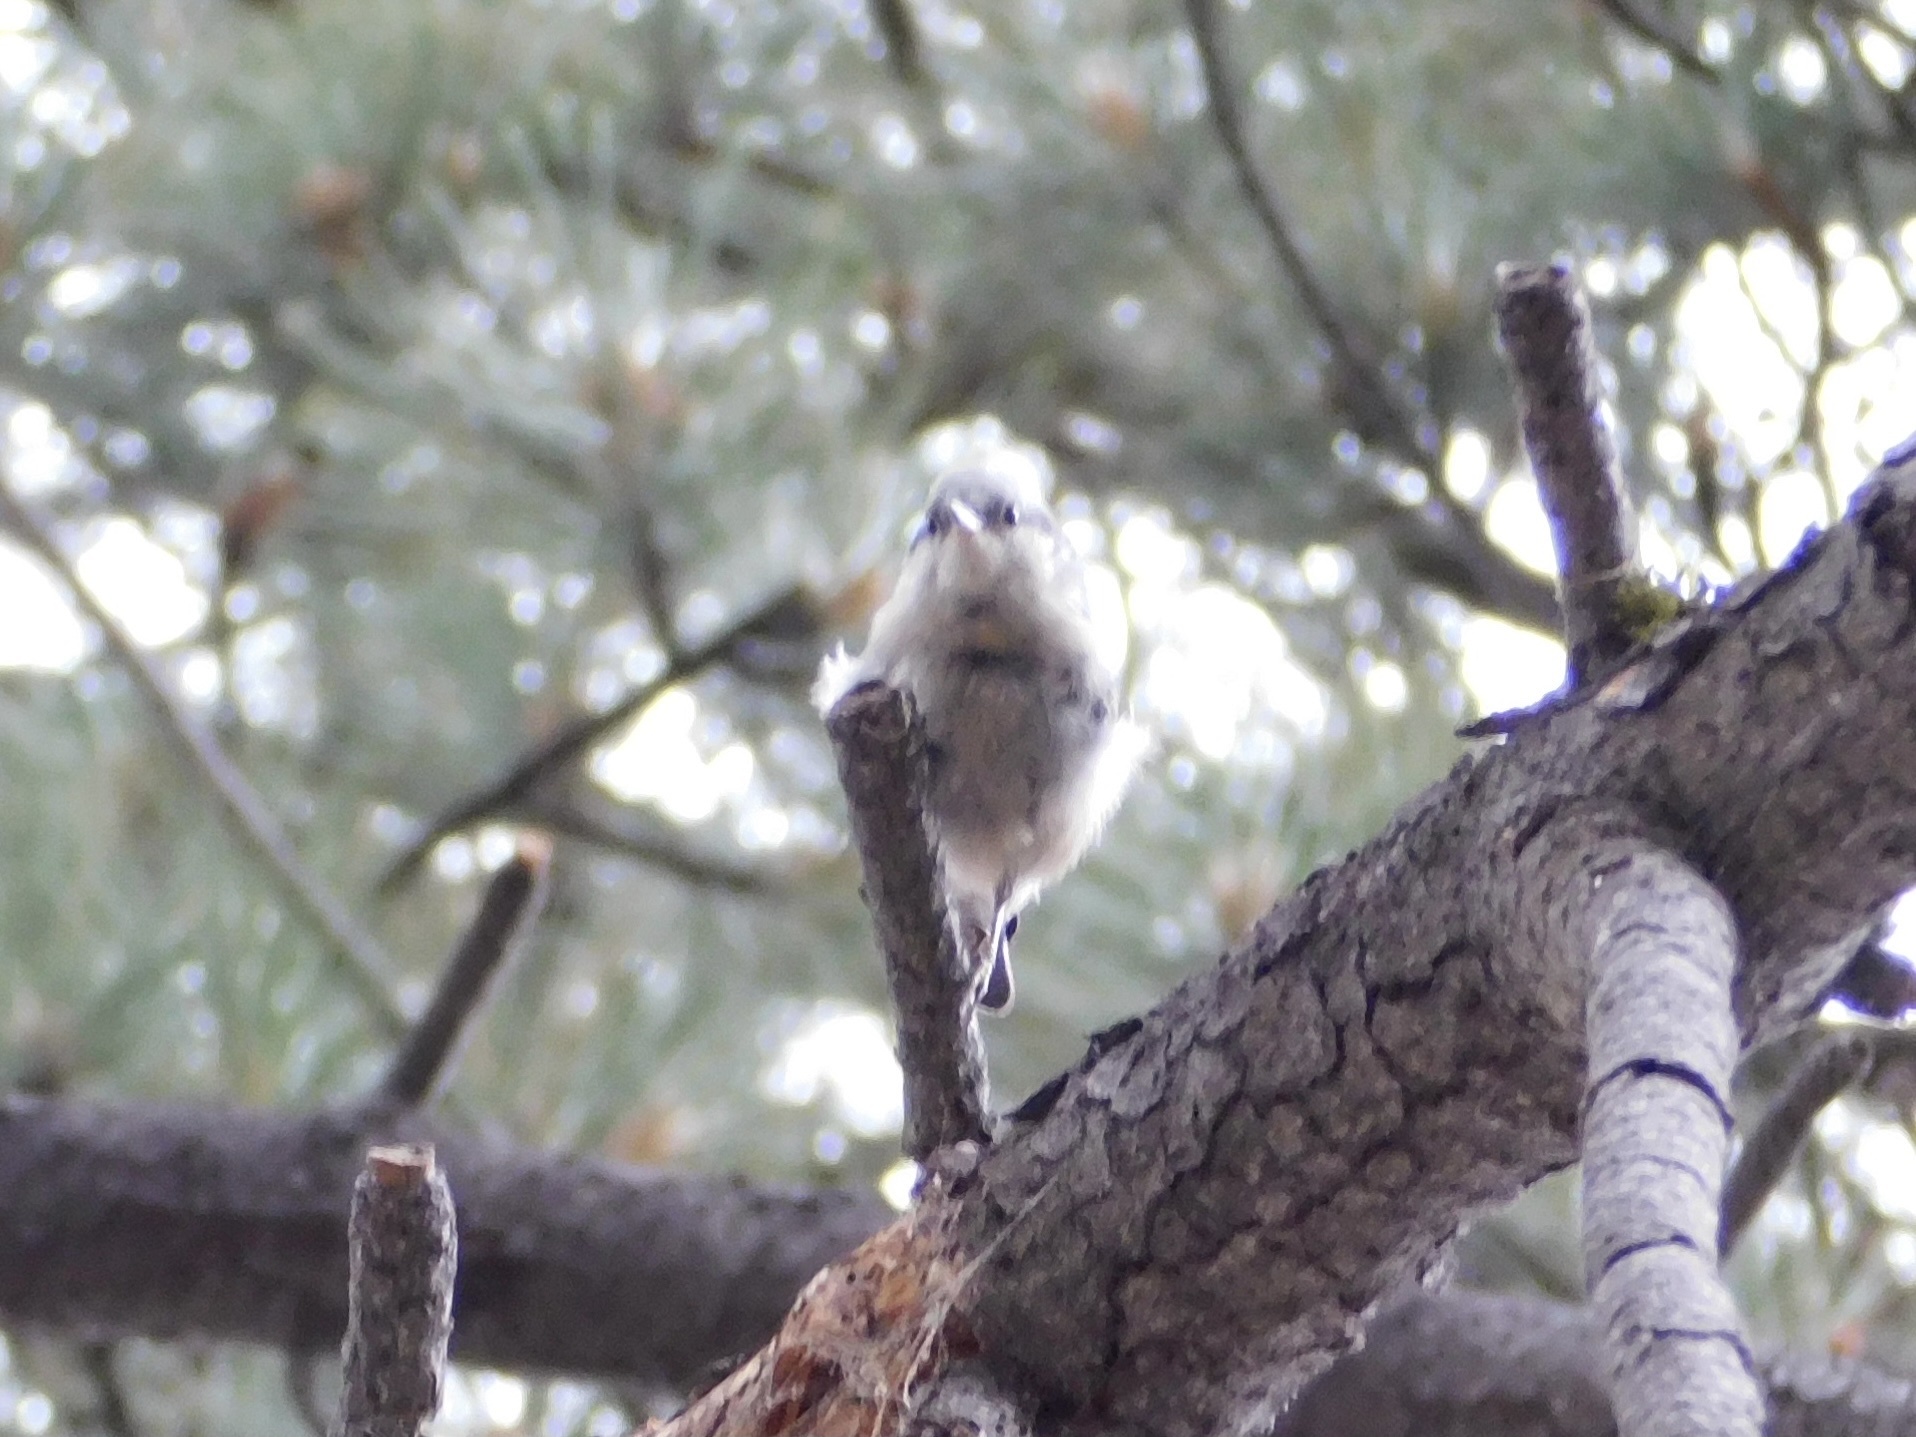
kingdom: Animalia
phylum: Chordata
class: Aves
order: Passeriformes
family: Sittidae
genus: Sitta
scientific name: Sitta pygmaea
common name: Pygmy nuthatch
